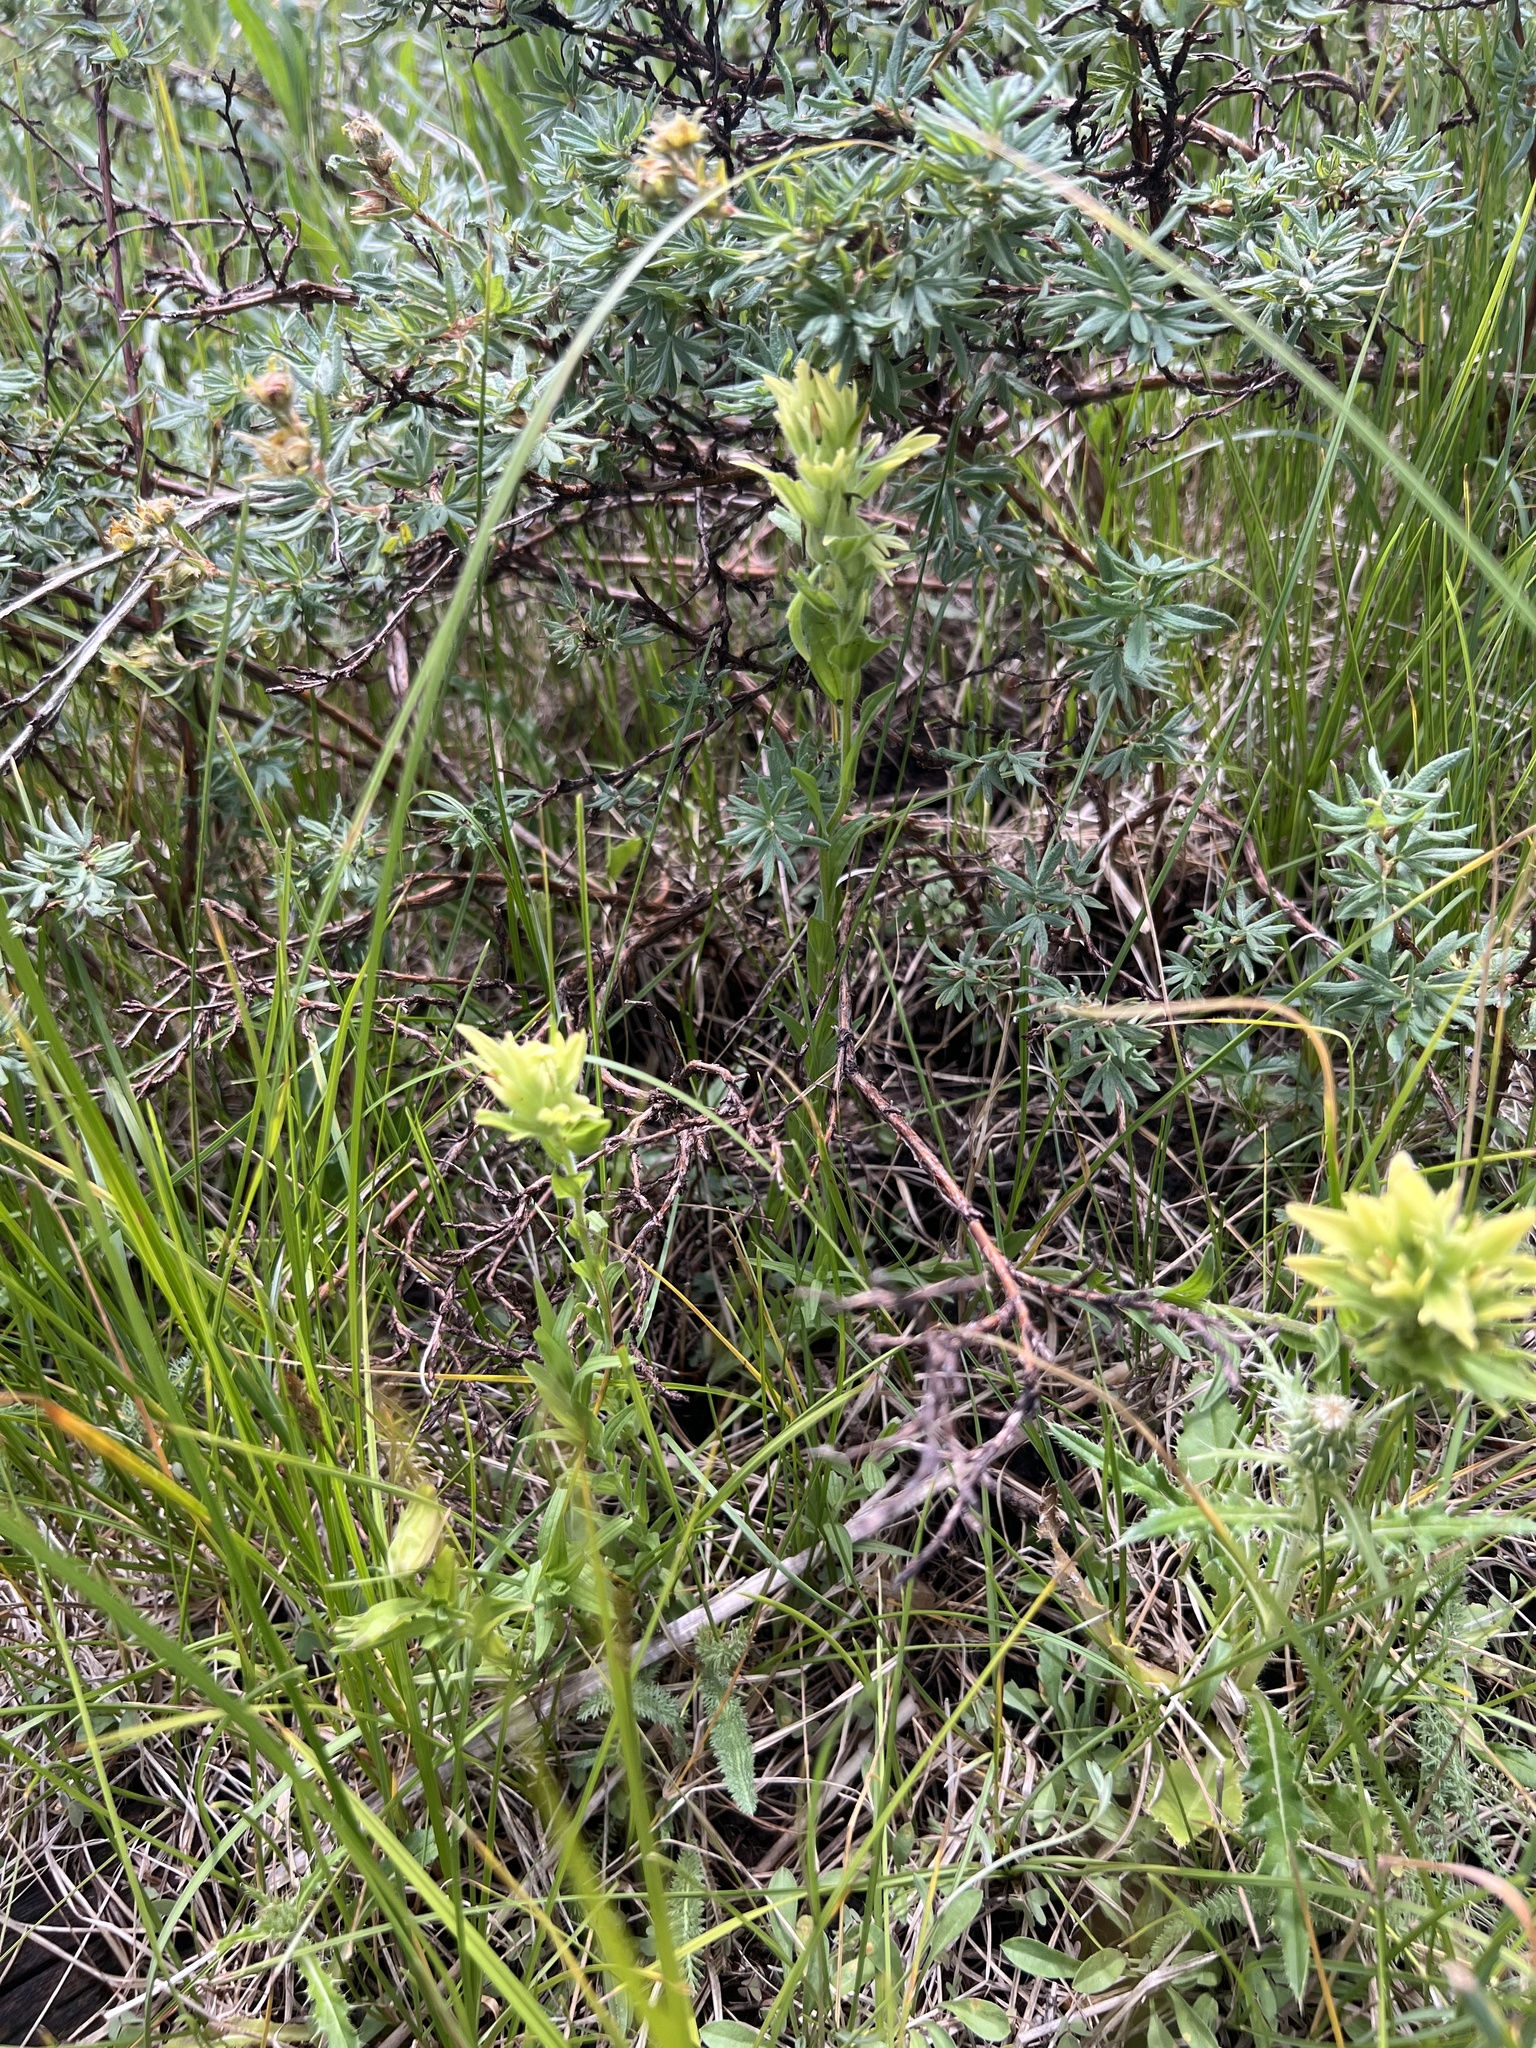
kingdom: Plantae
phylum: Tracheophyta
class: Magnoliopsida
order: Lamiales
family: Orobanchaceae
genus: Castilleja
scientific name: Castilleja mogollonica
